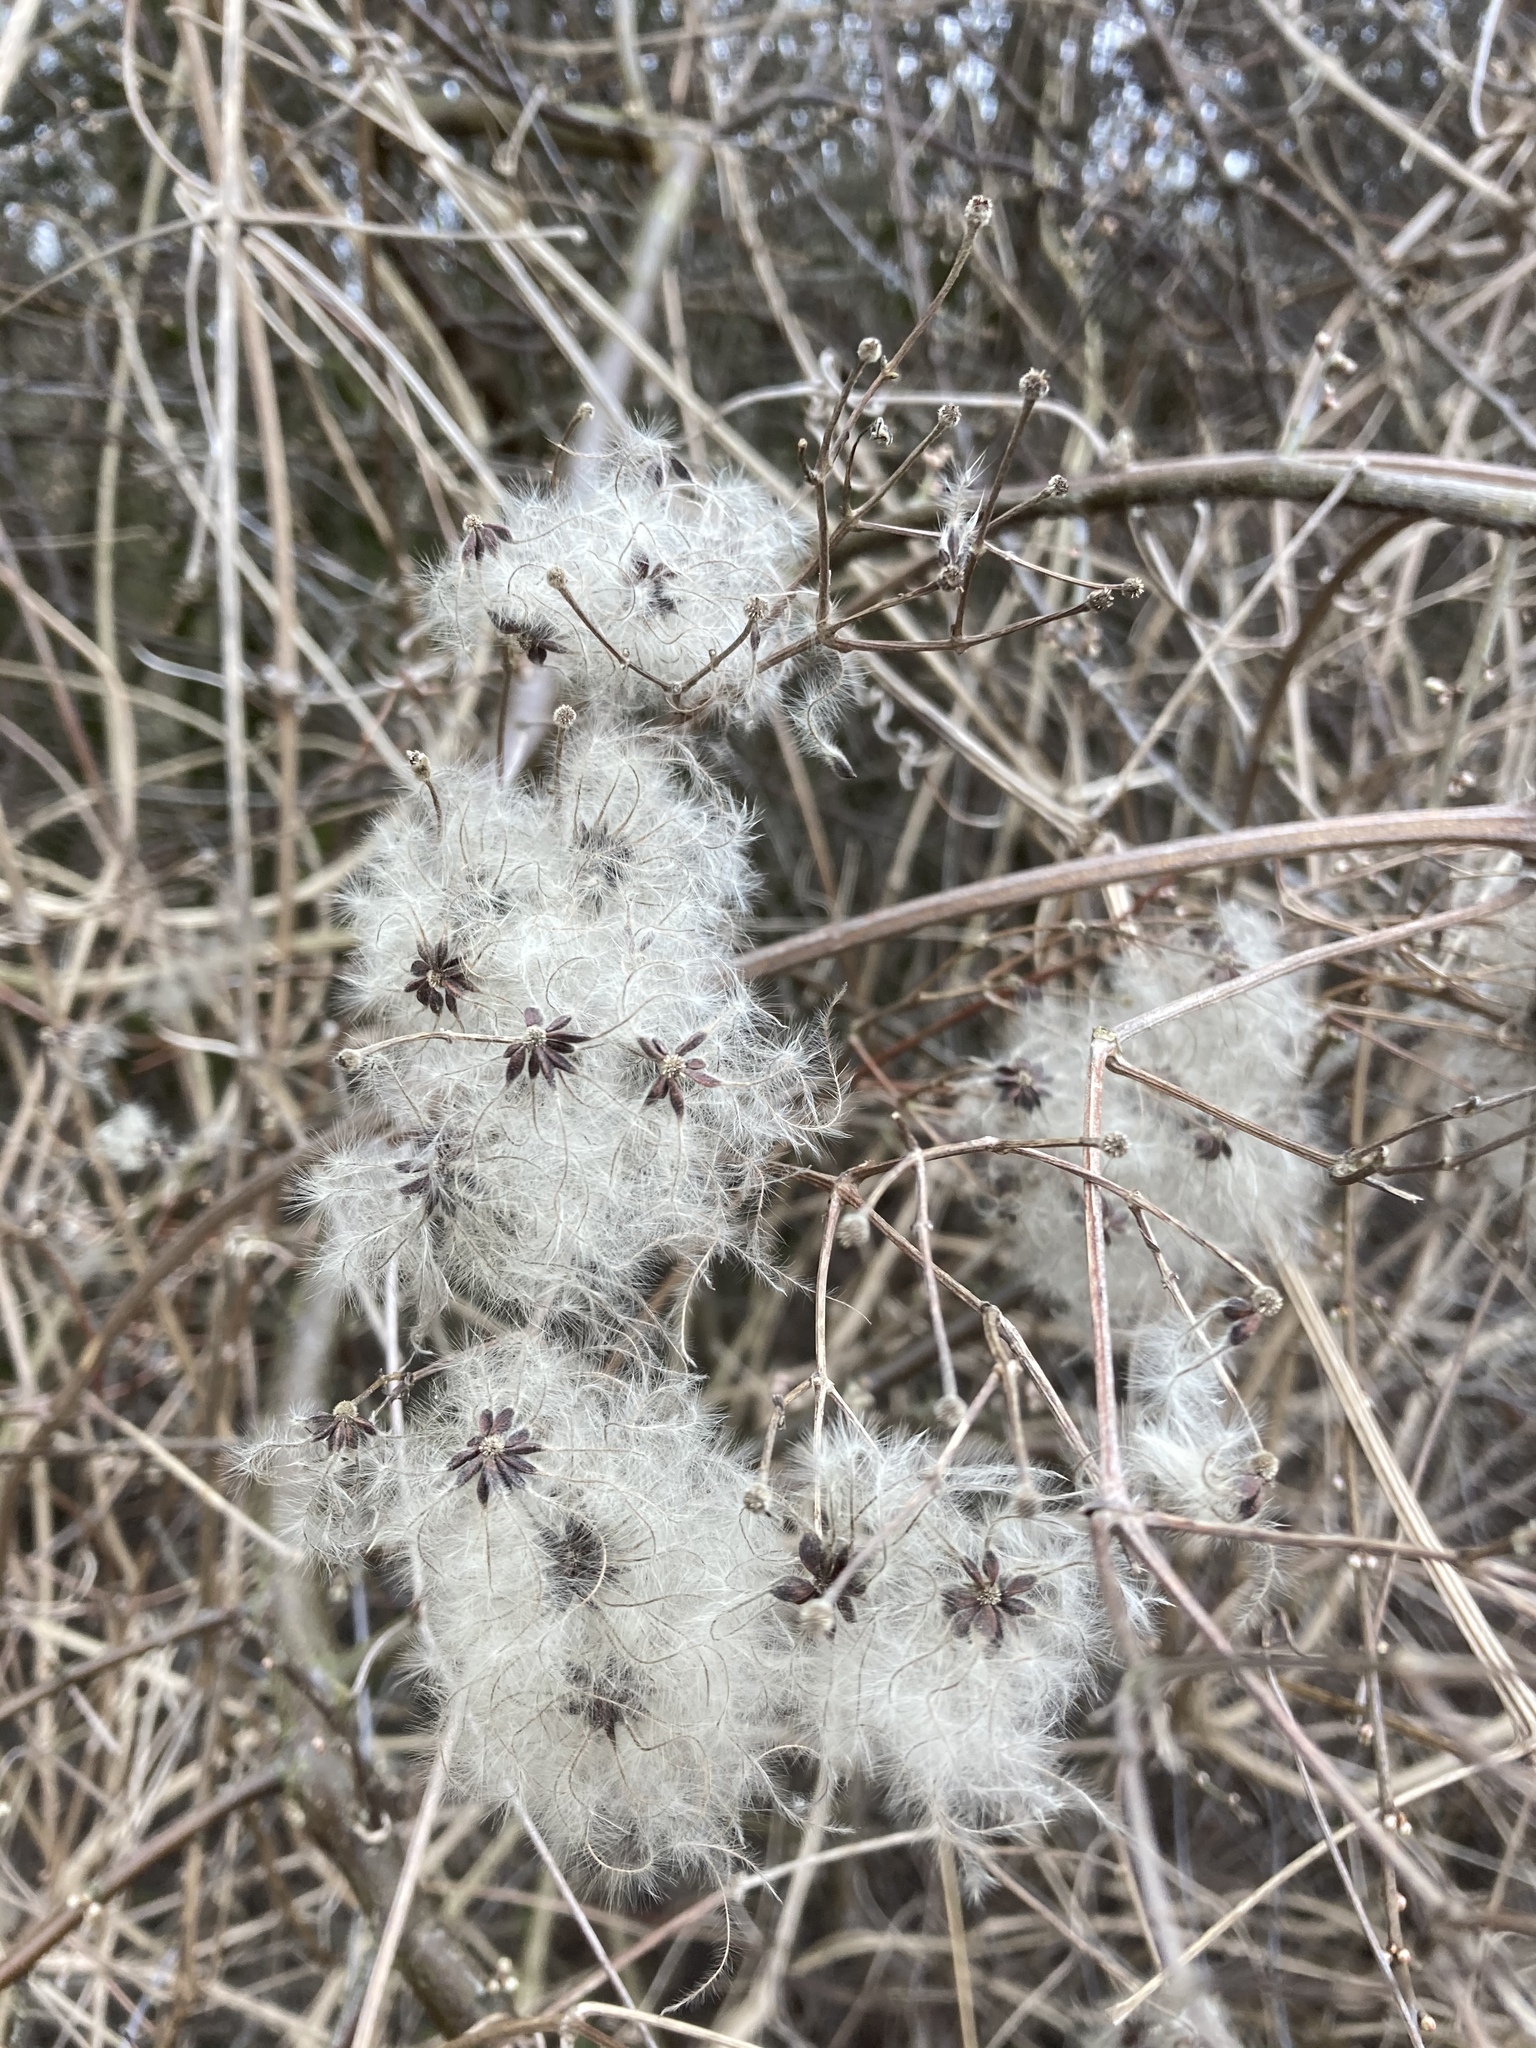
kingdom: Plantae
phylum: Tracheophyta
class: Magnoliopsida
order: Ranunculales
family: Ranunculaceae
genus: Clematis
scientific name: Clematis vitalba
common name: Evergreen clematis
